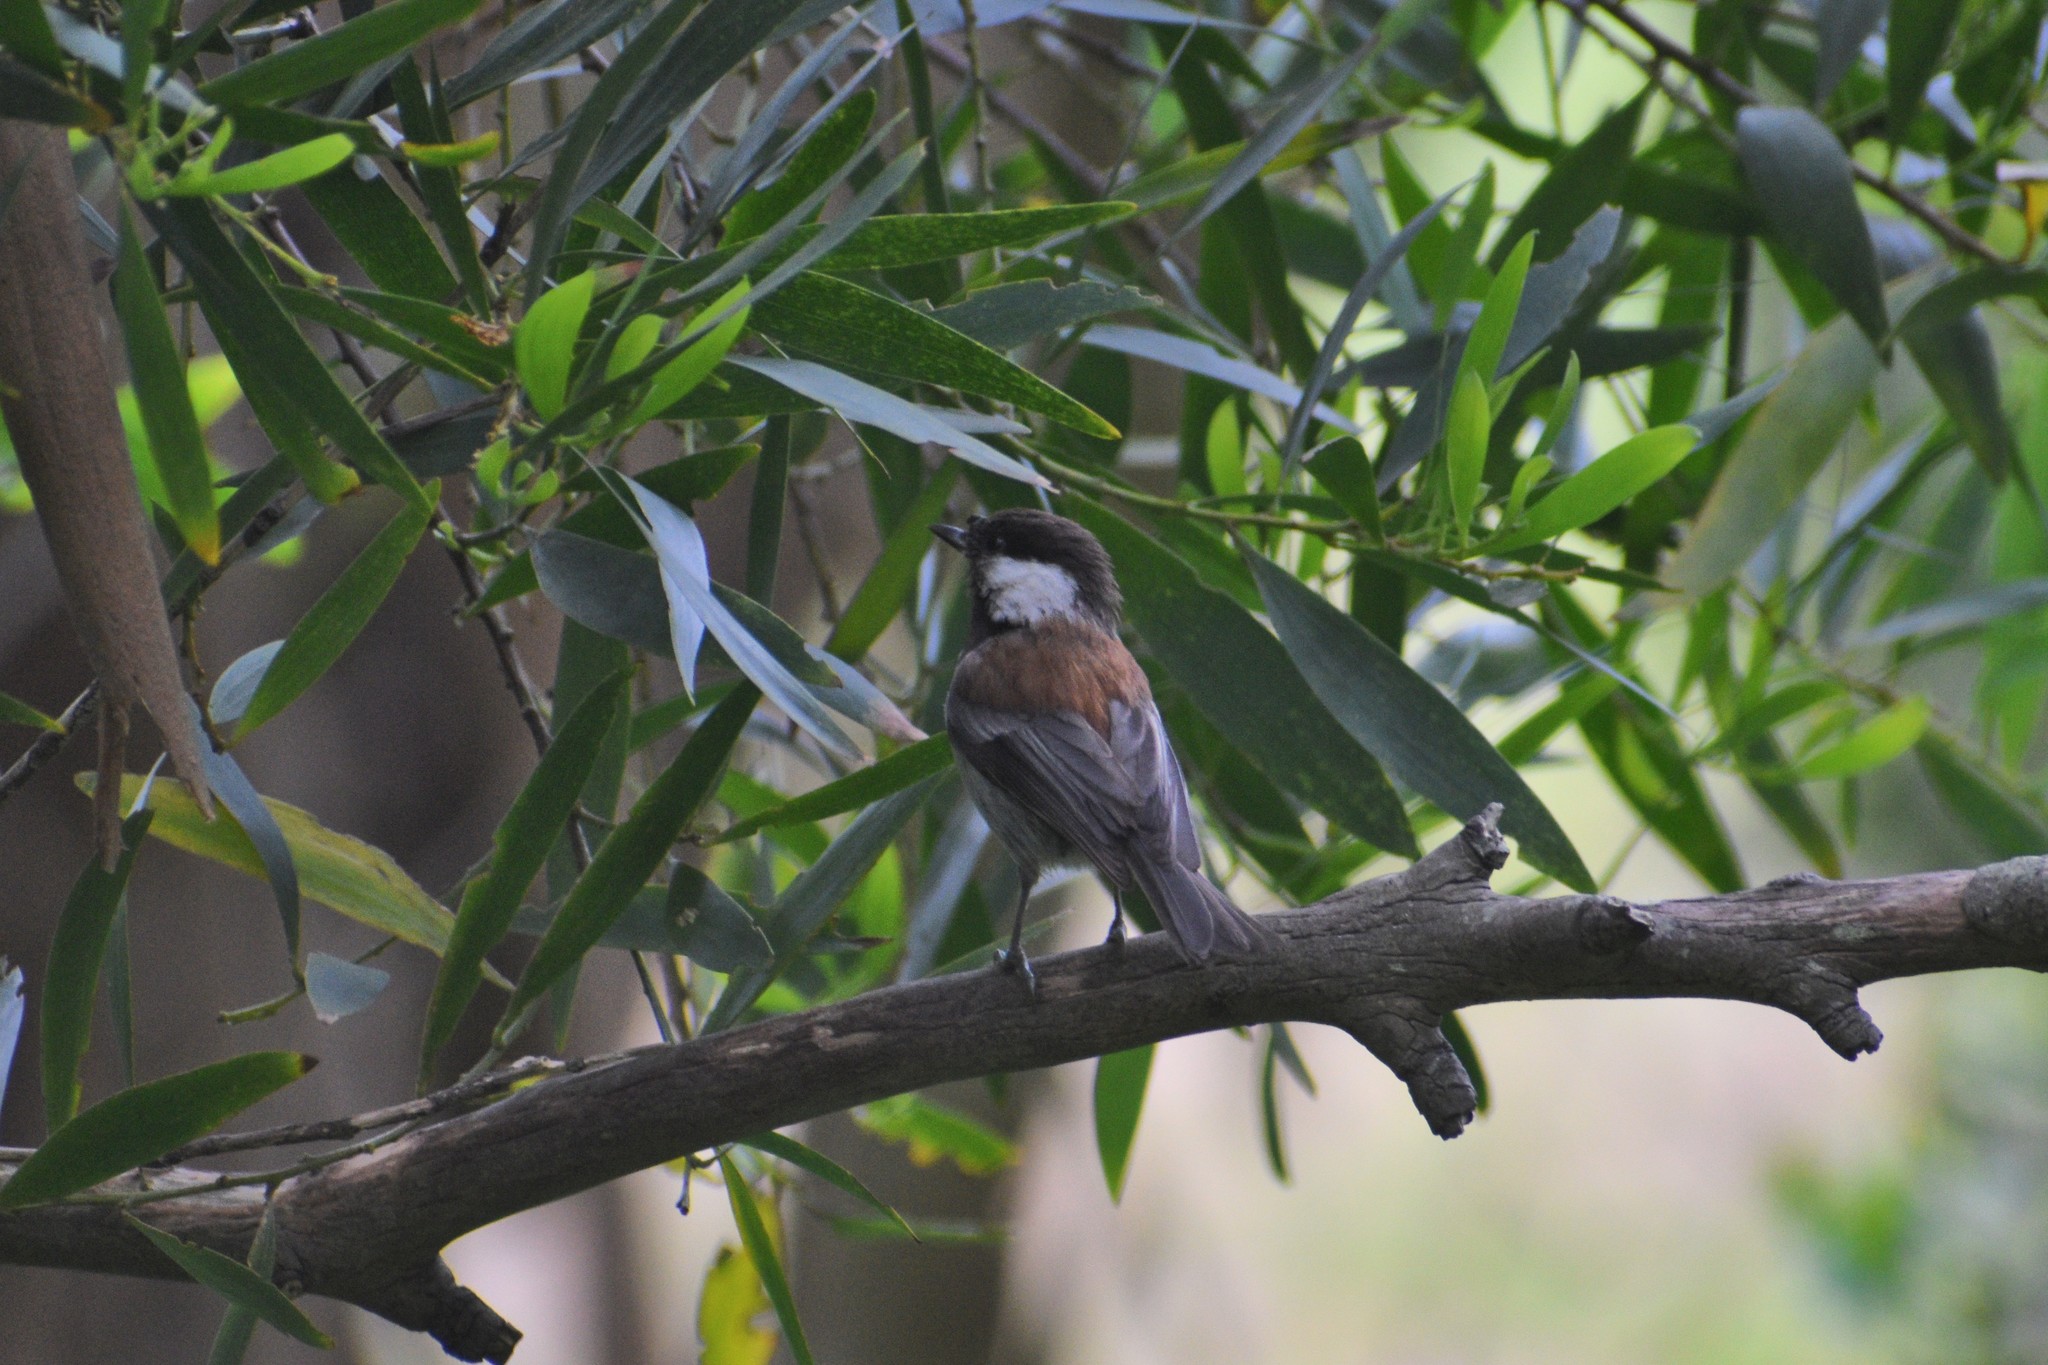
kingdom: Animalia
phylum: Chordata
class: Aves
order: Passeriformes
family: Paridae
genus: Poecile
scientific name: Poecile rufescens
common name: Chestnut-backed chickadee
